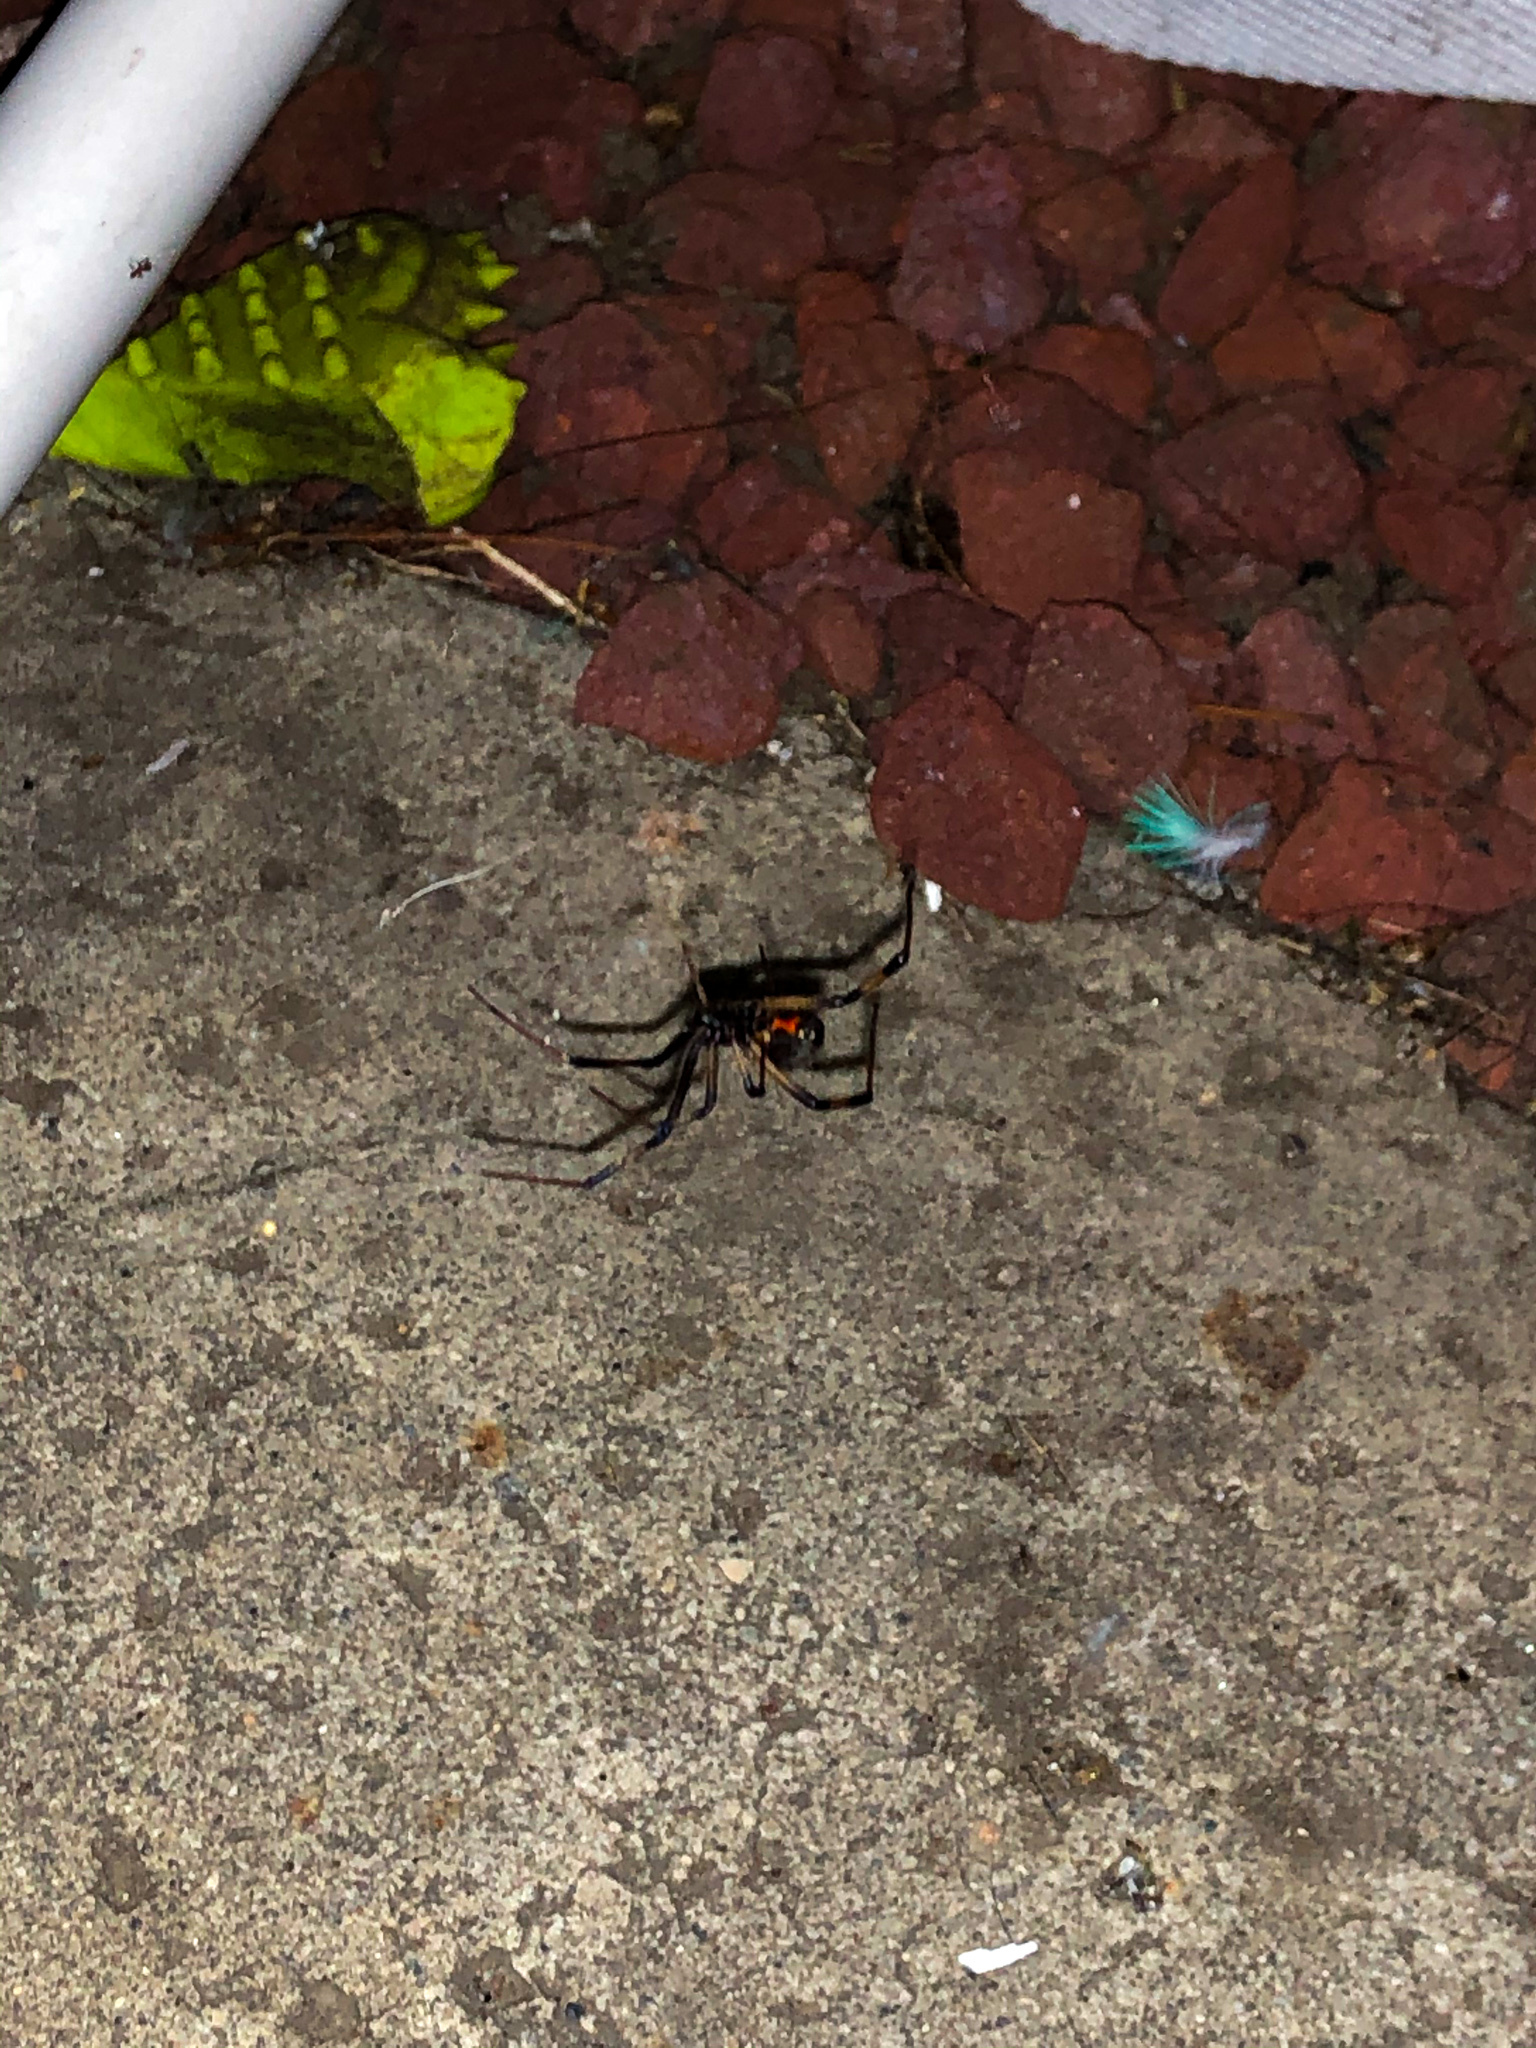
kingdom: Animalia
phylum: Arthropoda
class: Arachnida
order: Araneae
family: Theridiidae
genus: Latrodectus
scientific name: Latrodectus geometricus
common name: Brown widow spider
